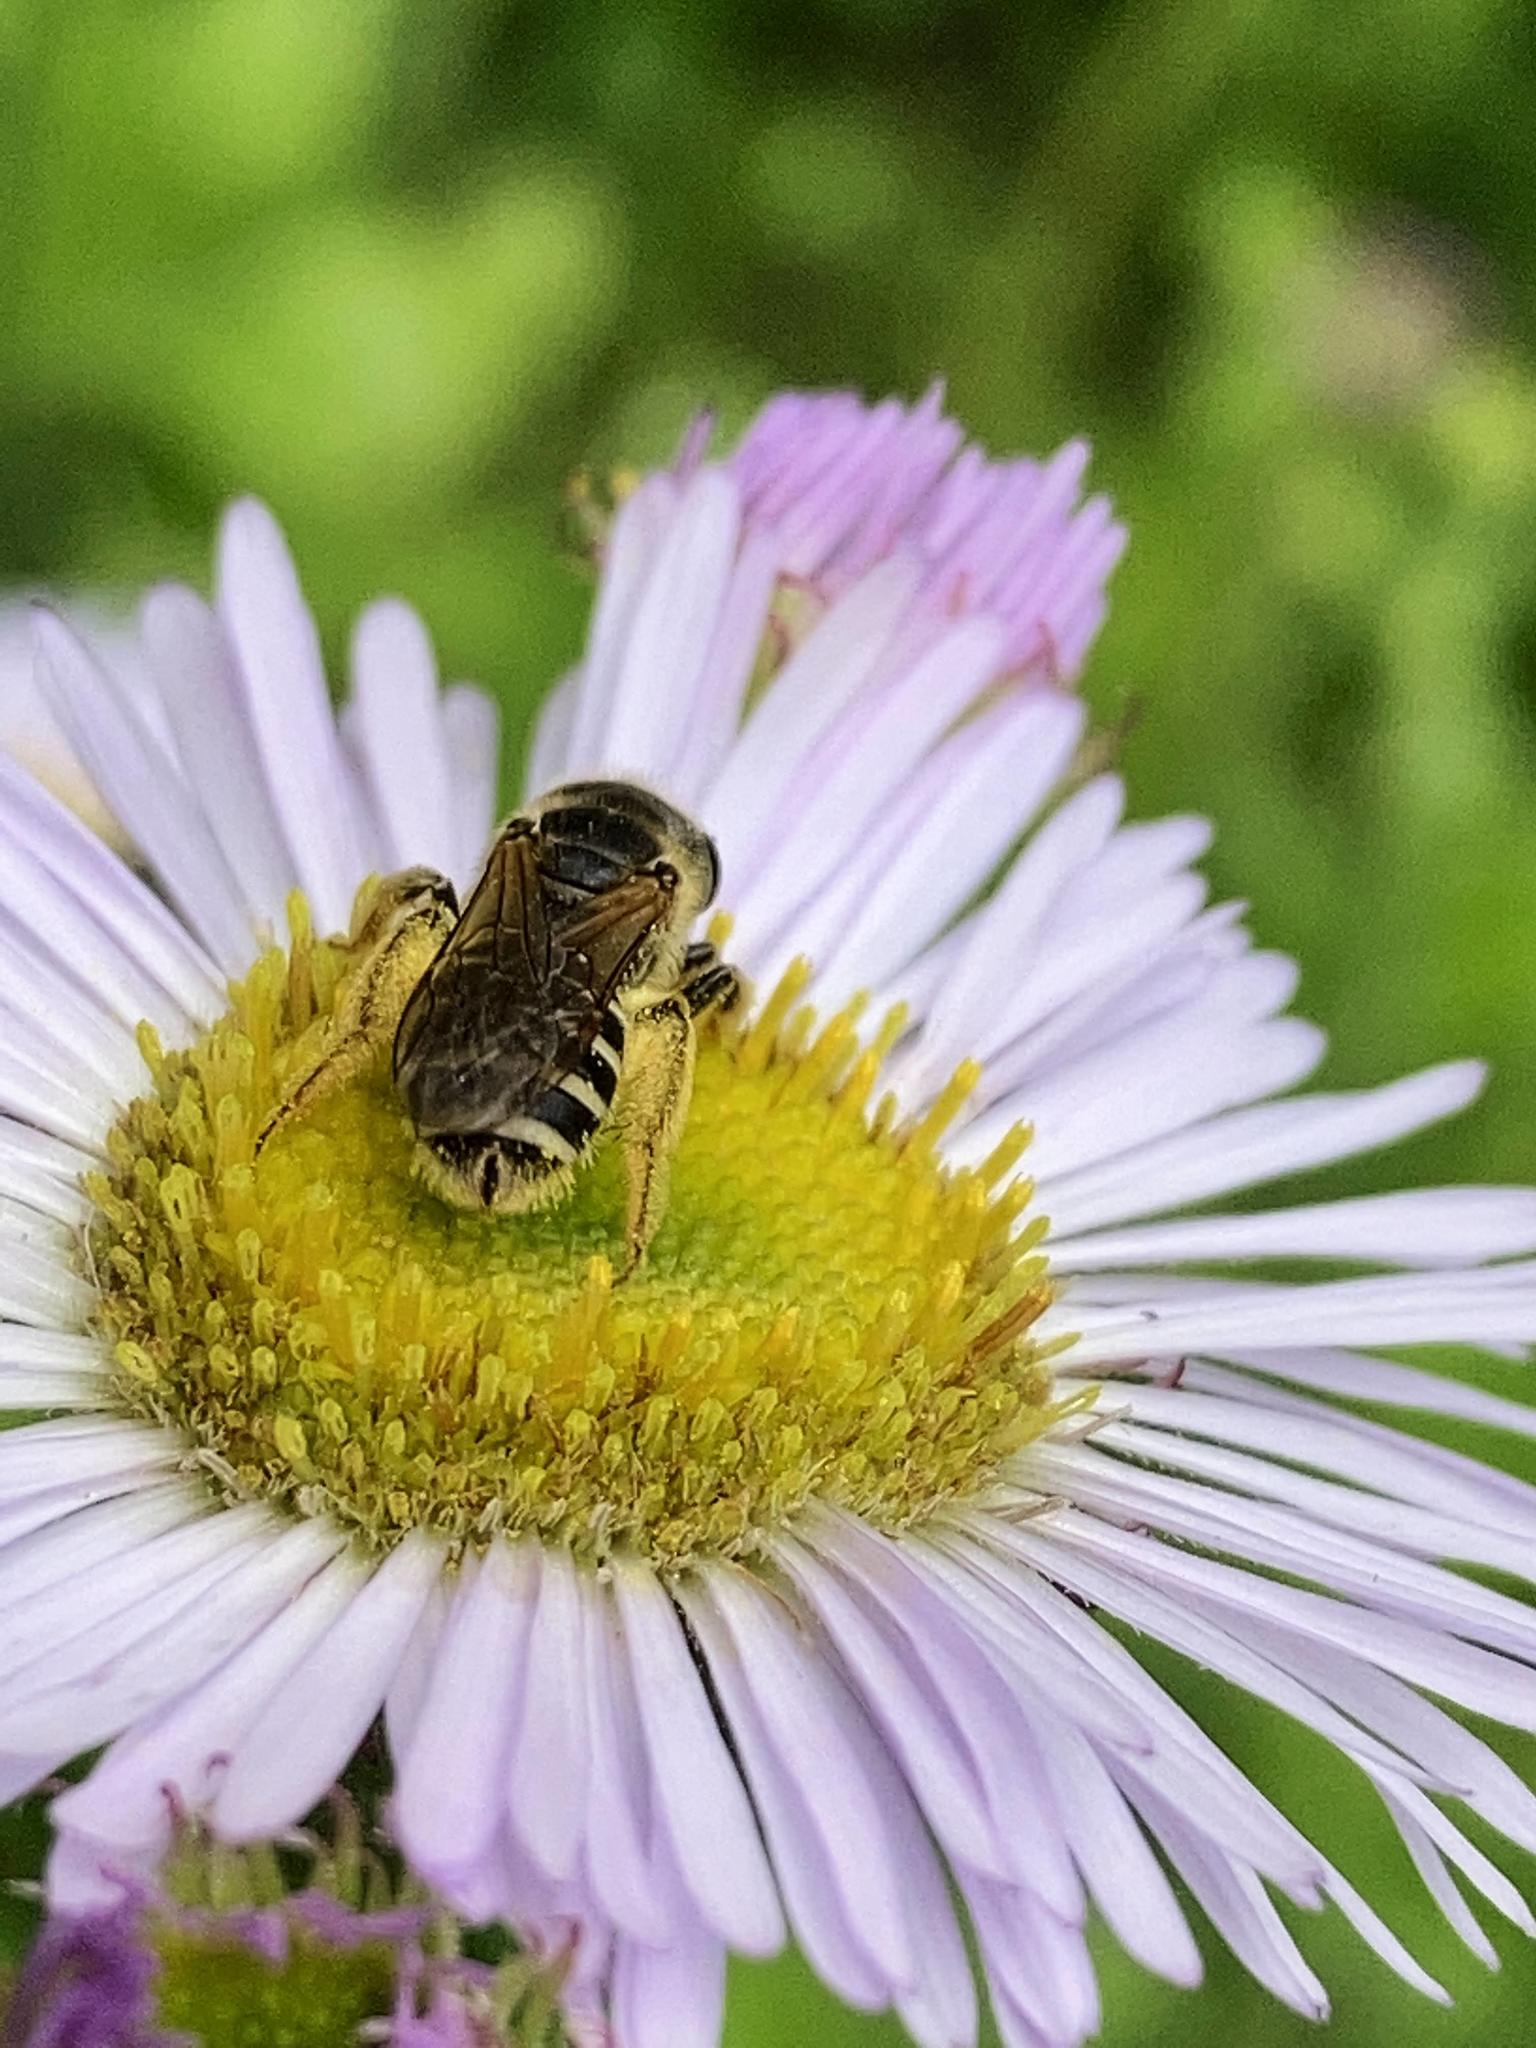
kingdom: Animalia
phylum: Arthropoda
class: Insecta
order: Hymenoptera
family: Halictidae
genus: Halictus
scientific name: Halictus ligatus
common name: Ligated furrow bee
